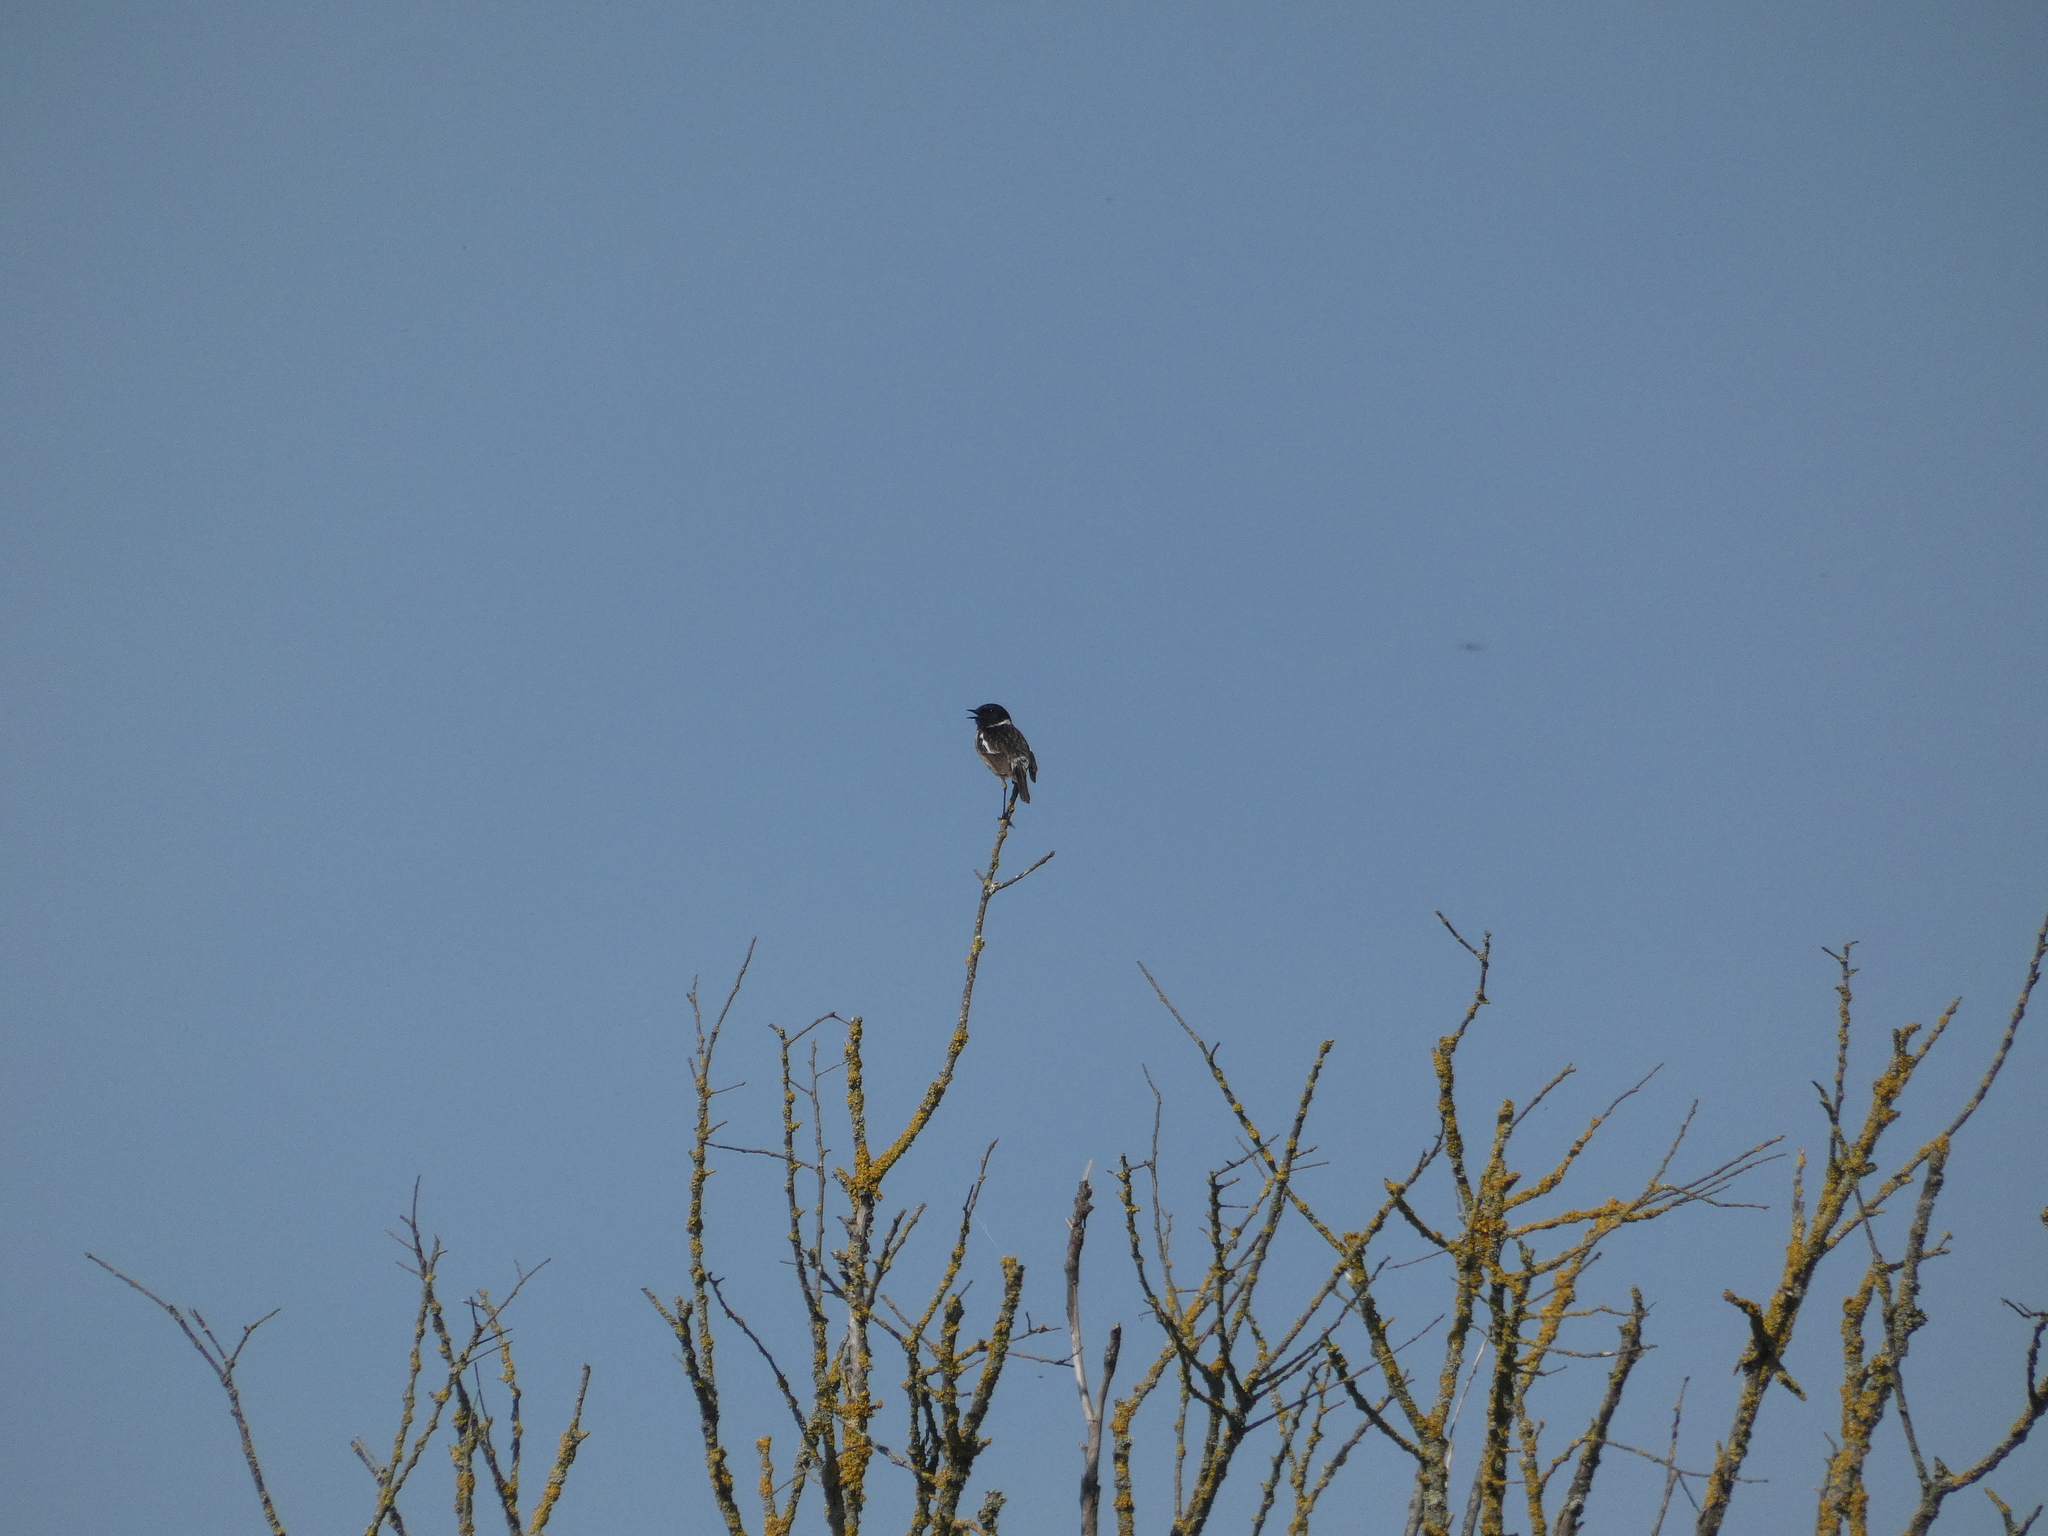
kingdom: Animalia
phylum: Chordata
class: Aves
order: Passeriformes
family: Muscicapidae
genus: Saxicola
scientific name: Saxicola rubicola
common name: European stonechat
